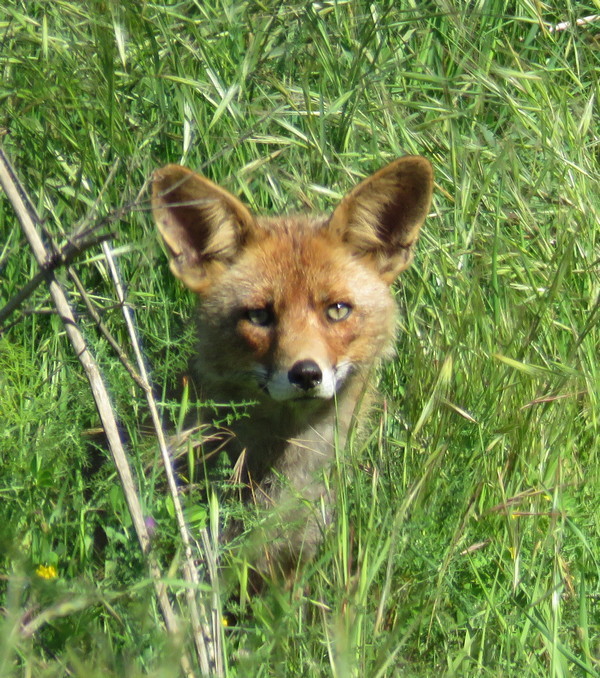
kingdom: Animalia
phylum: Chordata
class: Mammalia
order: Carnivora
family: Canidae
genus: Vulpes
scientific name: Vulpes vulpes
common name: Red fox
